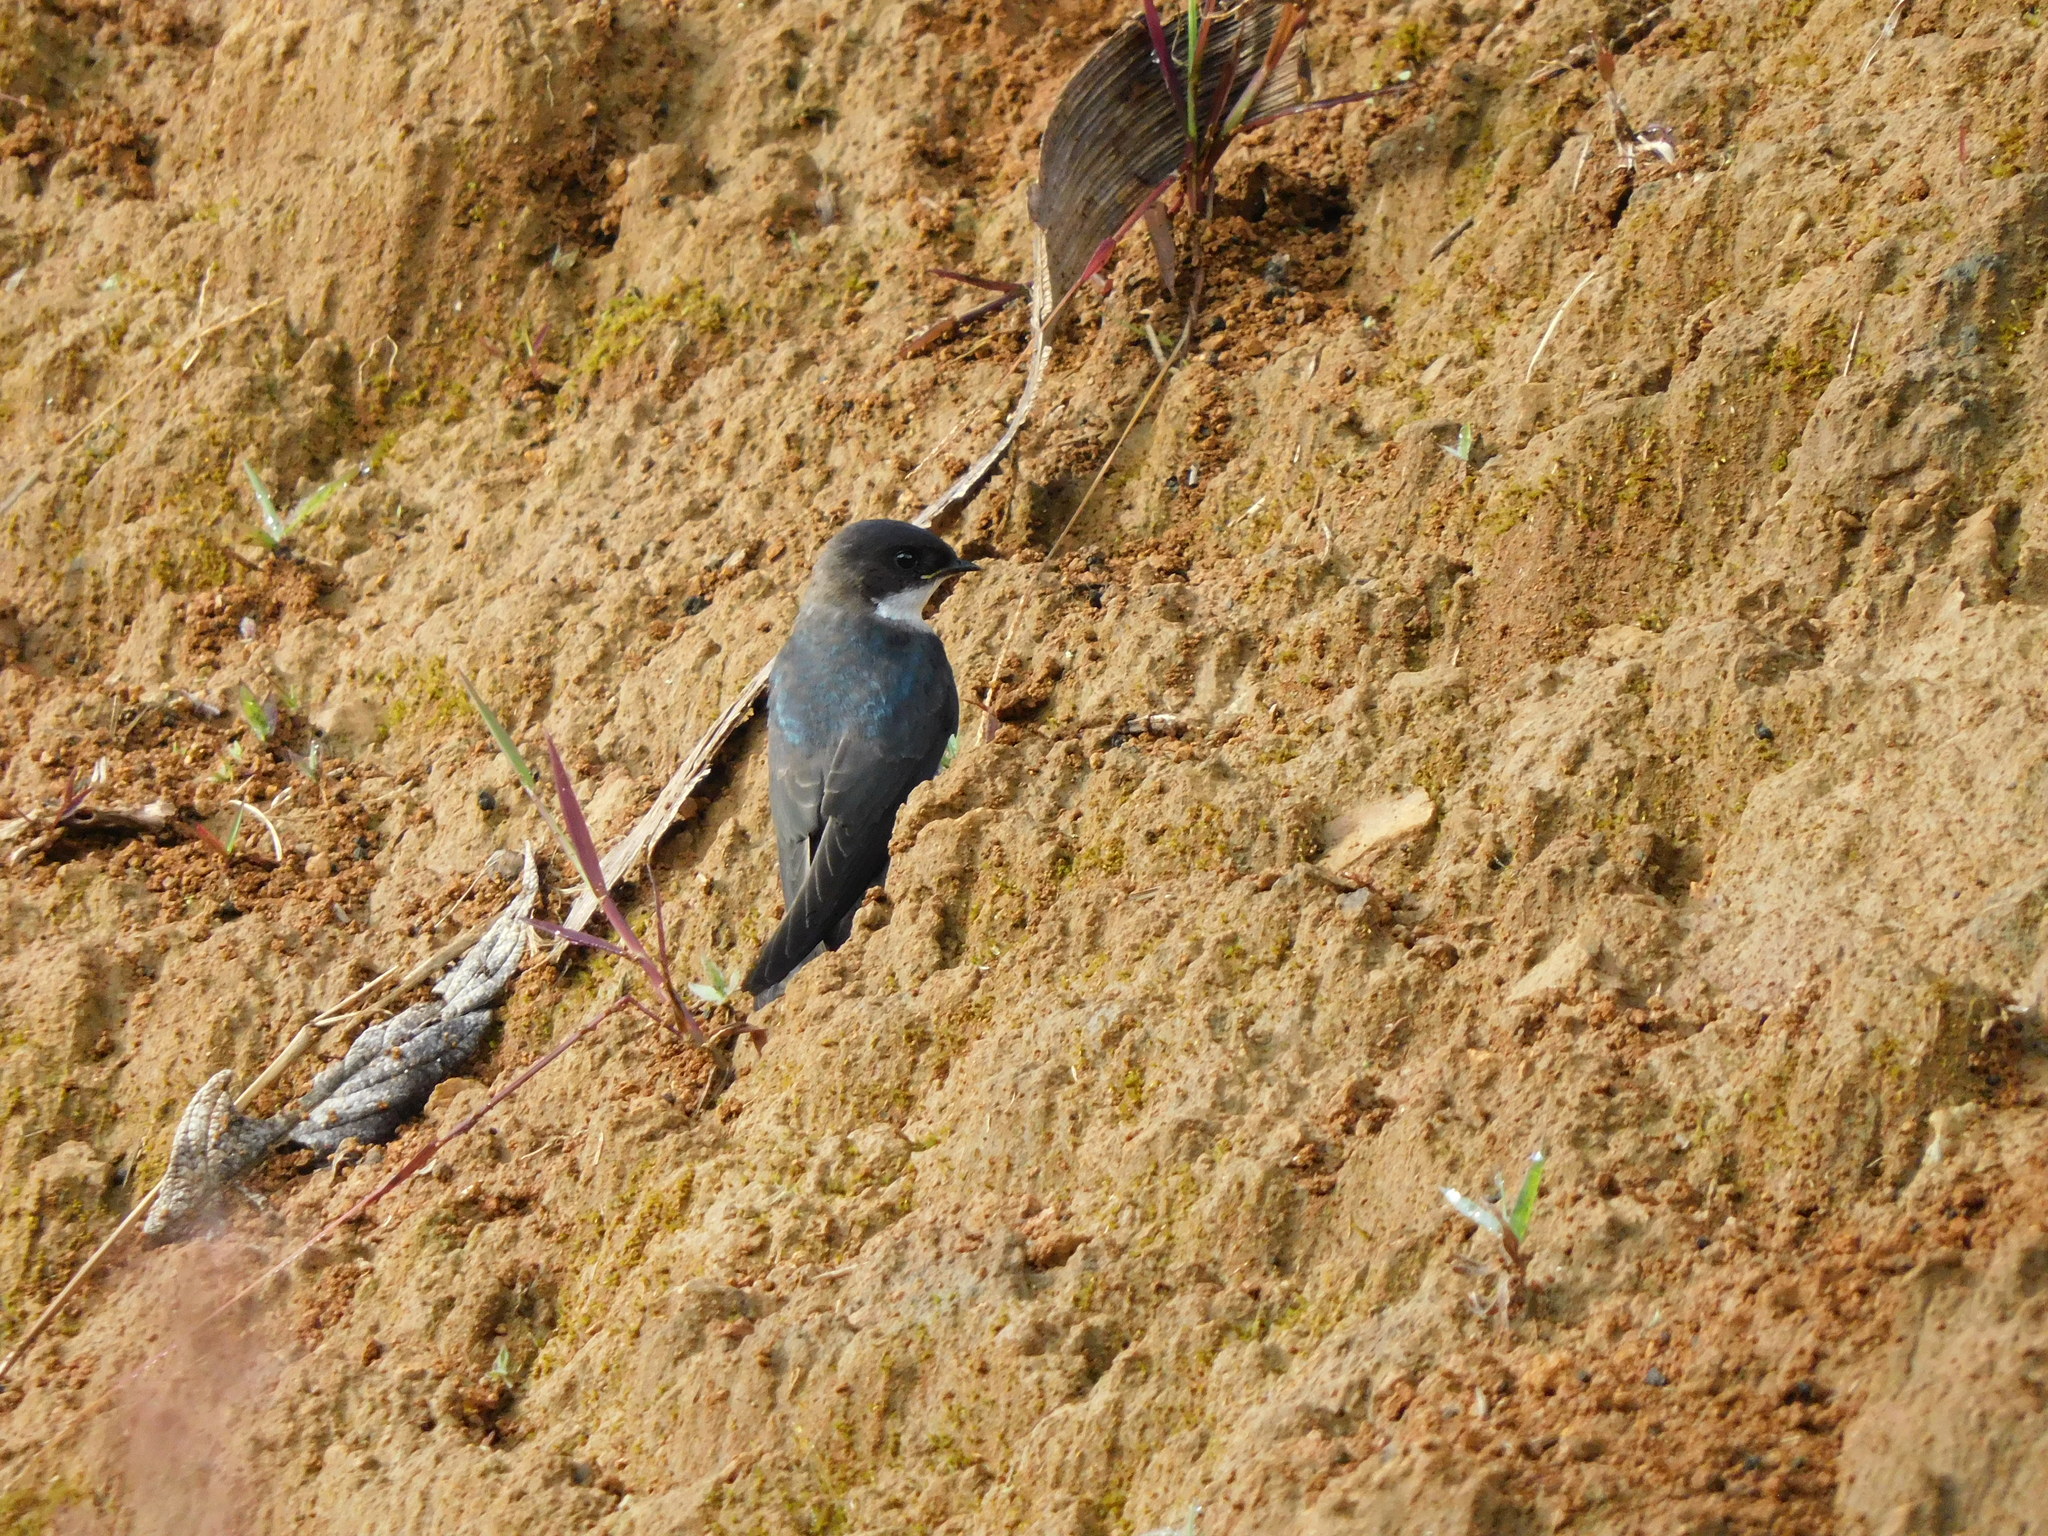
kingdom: Animalia
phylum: Chordata
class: Aves
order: Passeriformes
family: Hirundinidae
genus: Notiochelidon
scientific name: Notiochelidon cyanoleuca
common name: Blue-and-white swallow
